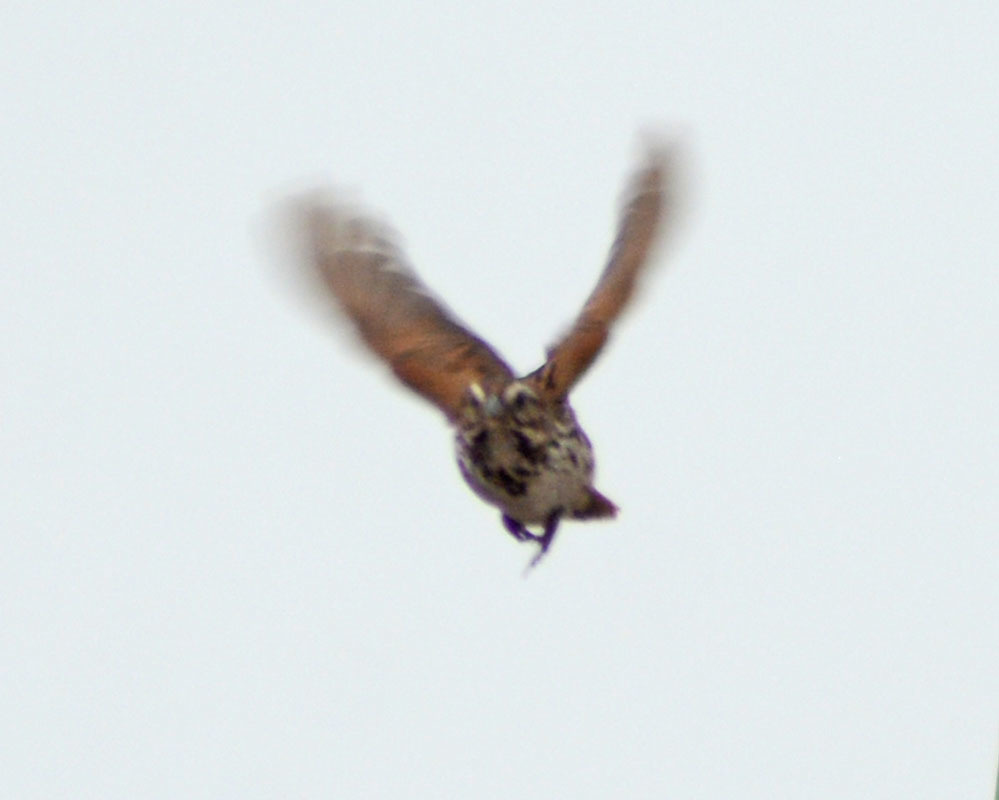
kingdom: Animalia
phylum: Chordata
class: Aves
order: Passeriformes
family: Passerellidae
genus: Melospiza
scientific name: Melospiza melodia
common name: Song sparrow
